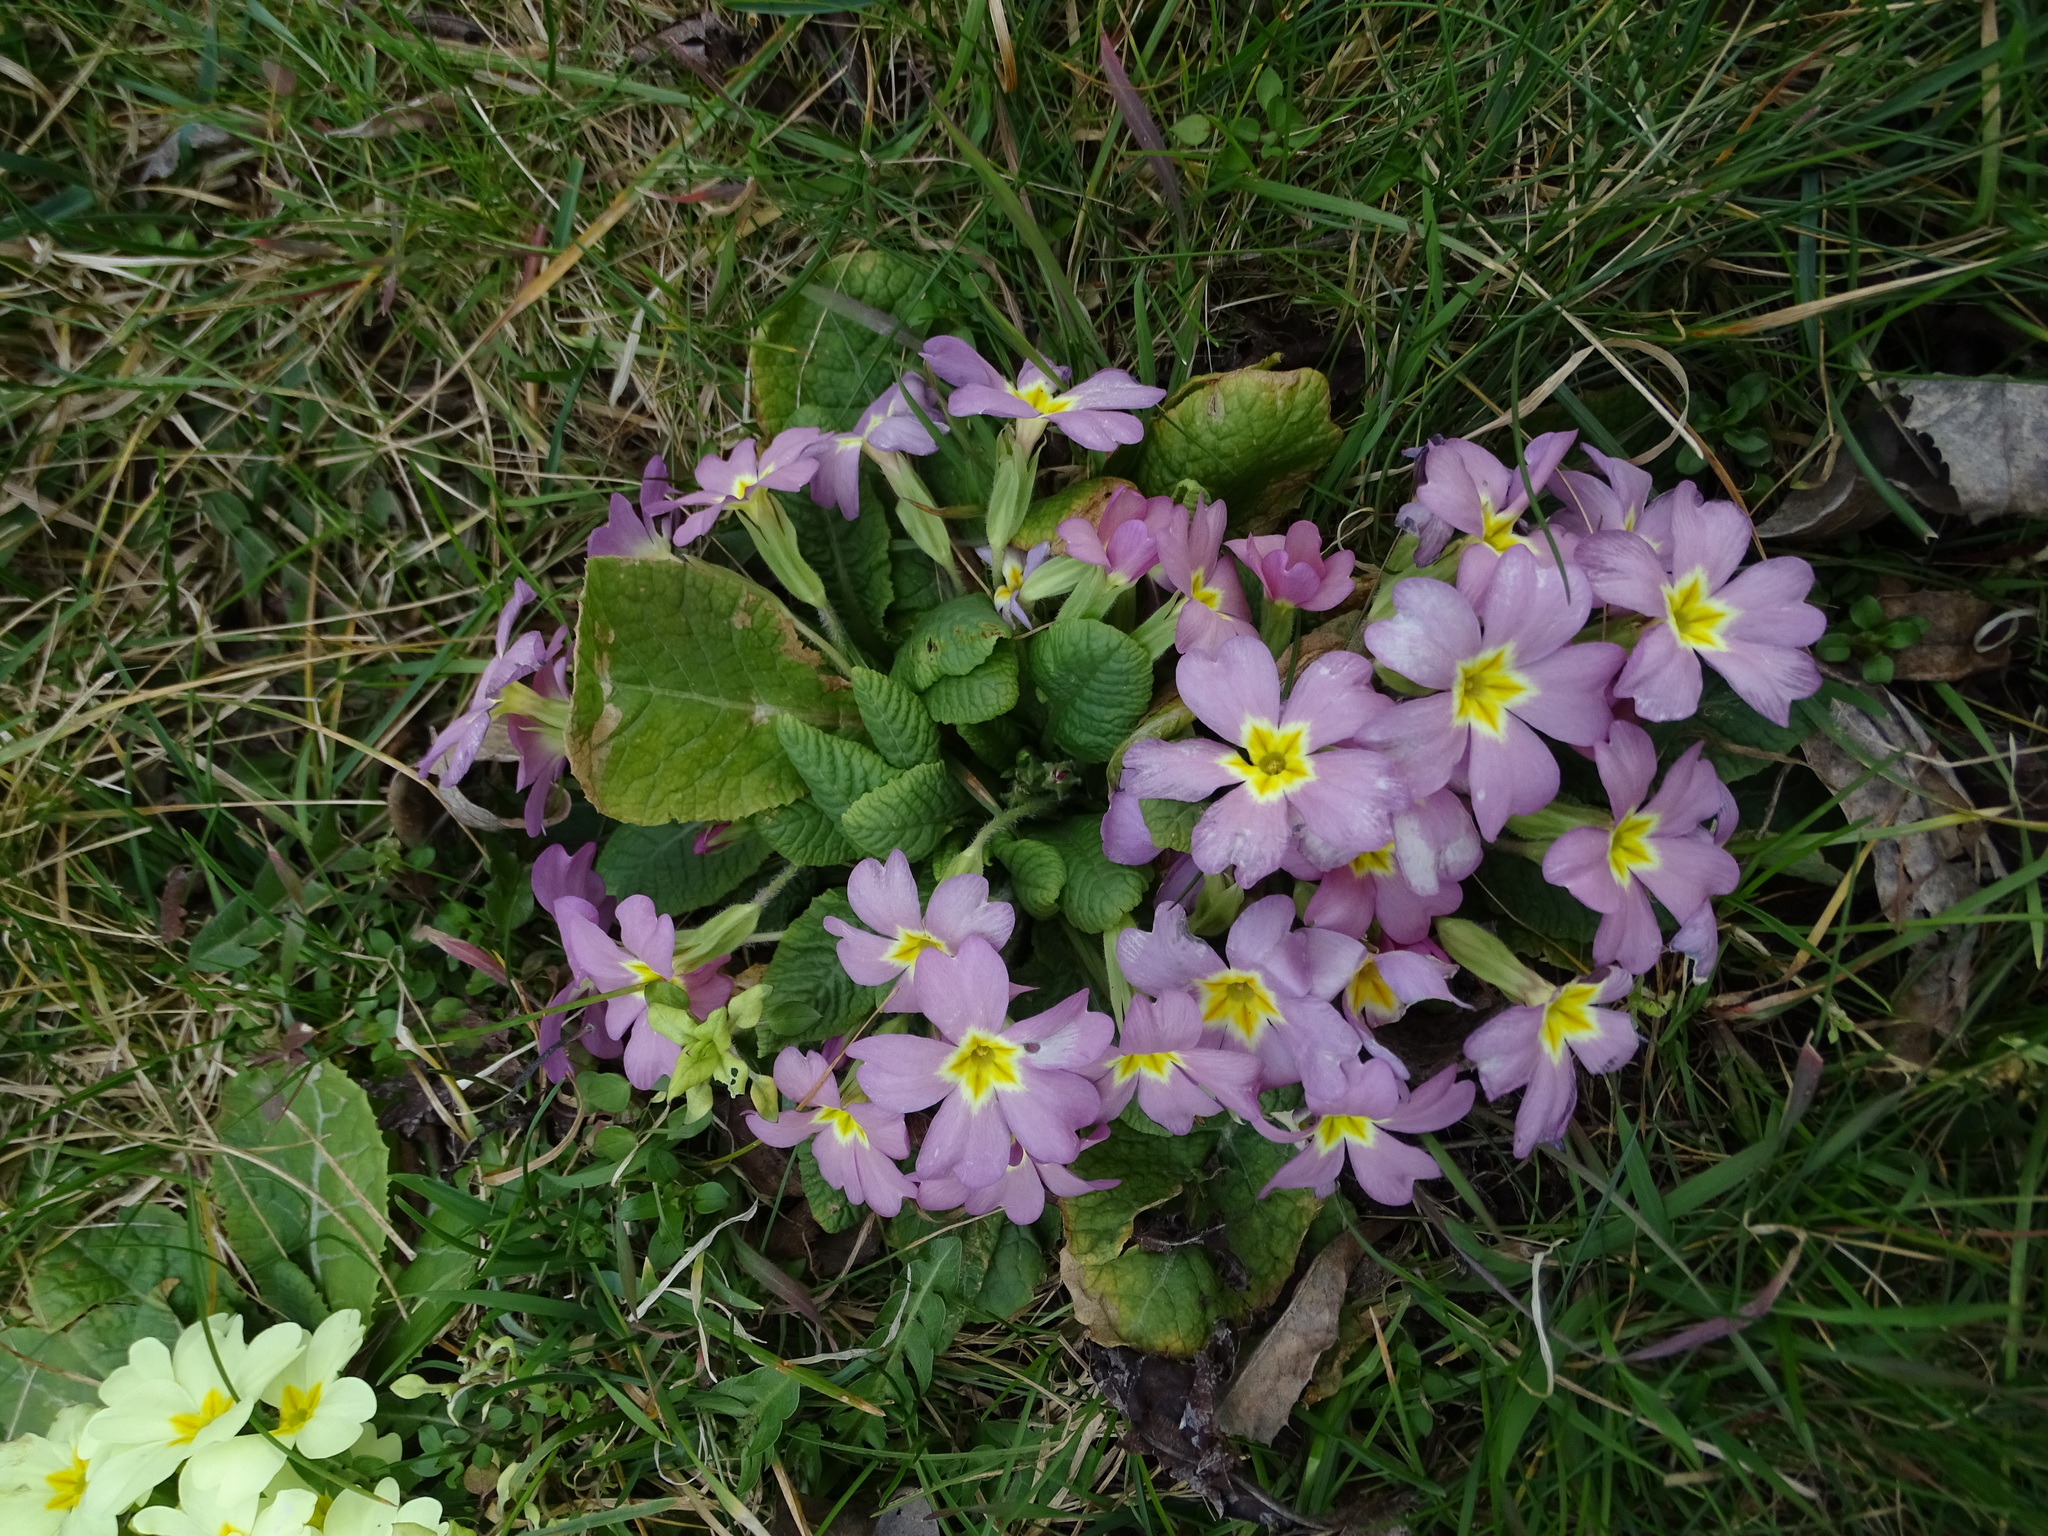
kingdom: Plantae
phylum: Tracheophyta
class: Magnoliopsida
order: Ericales
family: Primulaceae
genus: Primula
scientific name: Primula vulgaris
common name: Primrose
